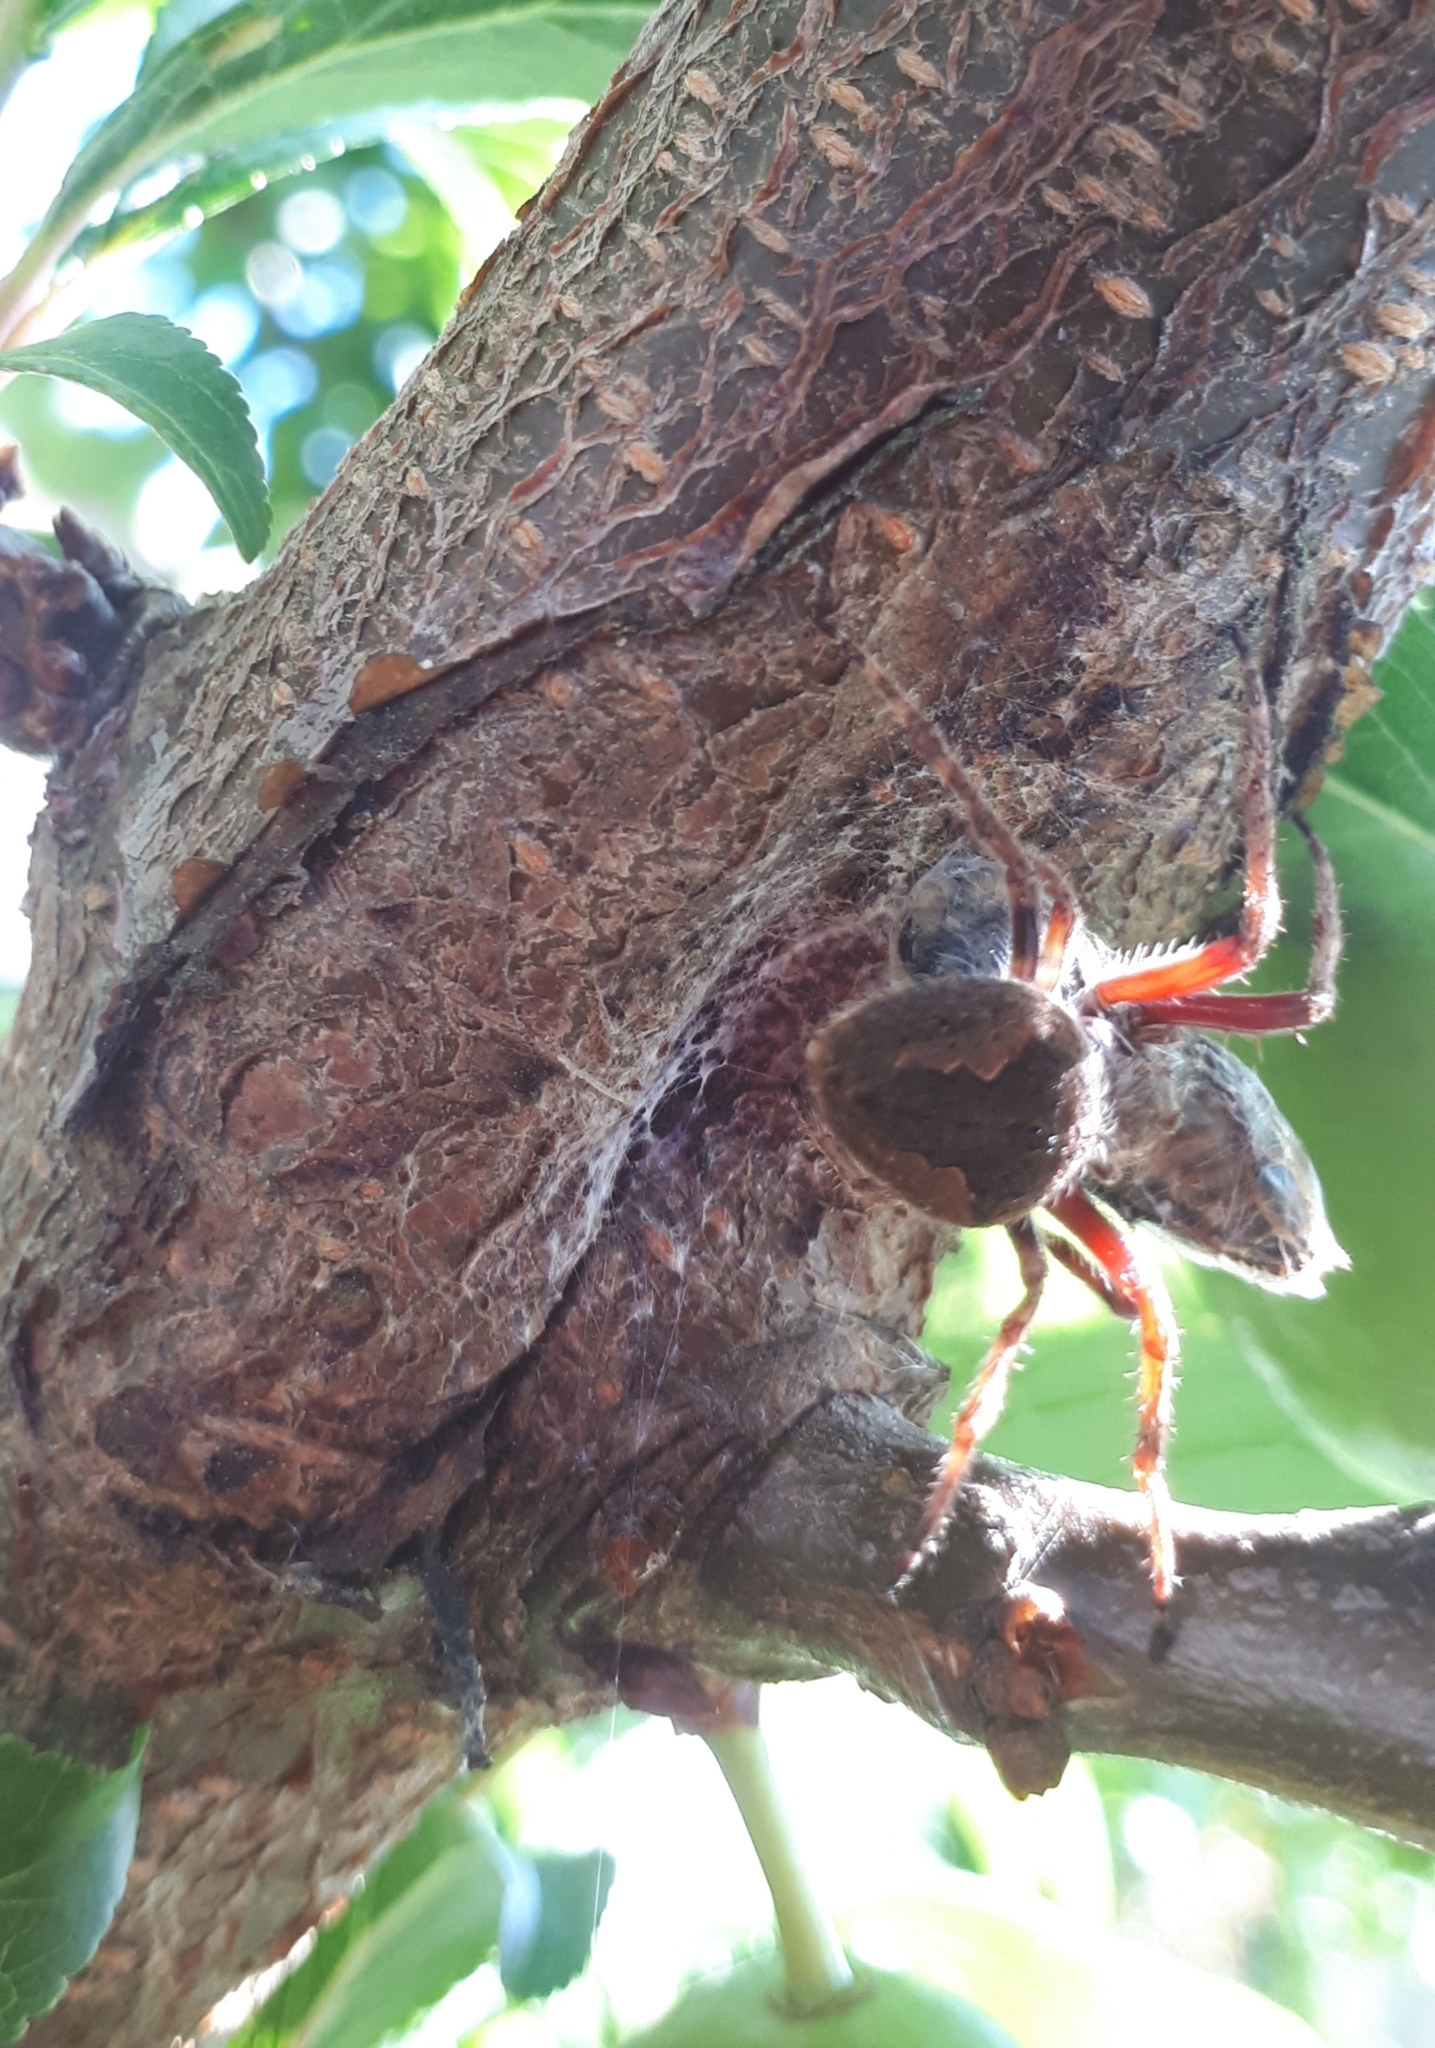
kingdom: Animalia
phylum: Arthropoda
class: Arachnida
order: Araneae
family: Araneidae
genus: Eriophora
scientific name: Eriophora pustulosa
